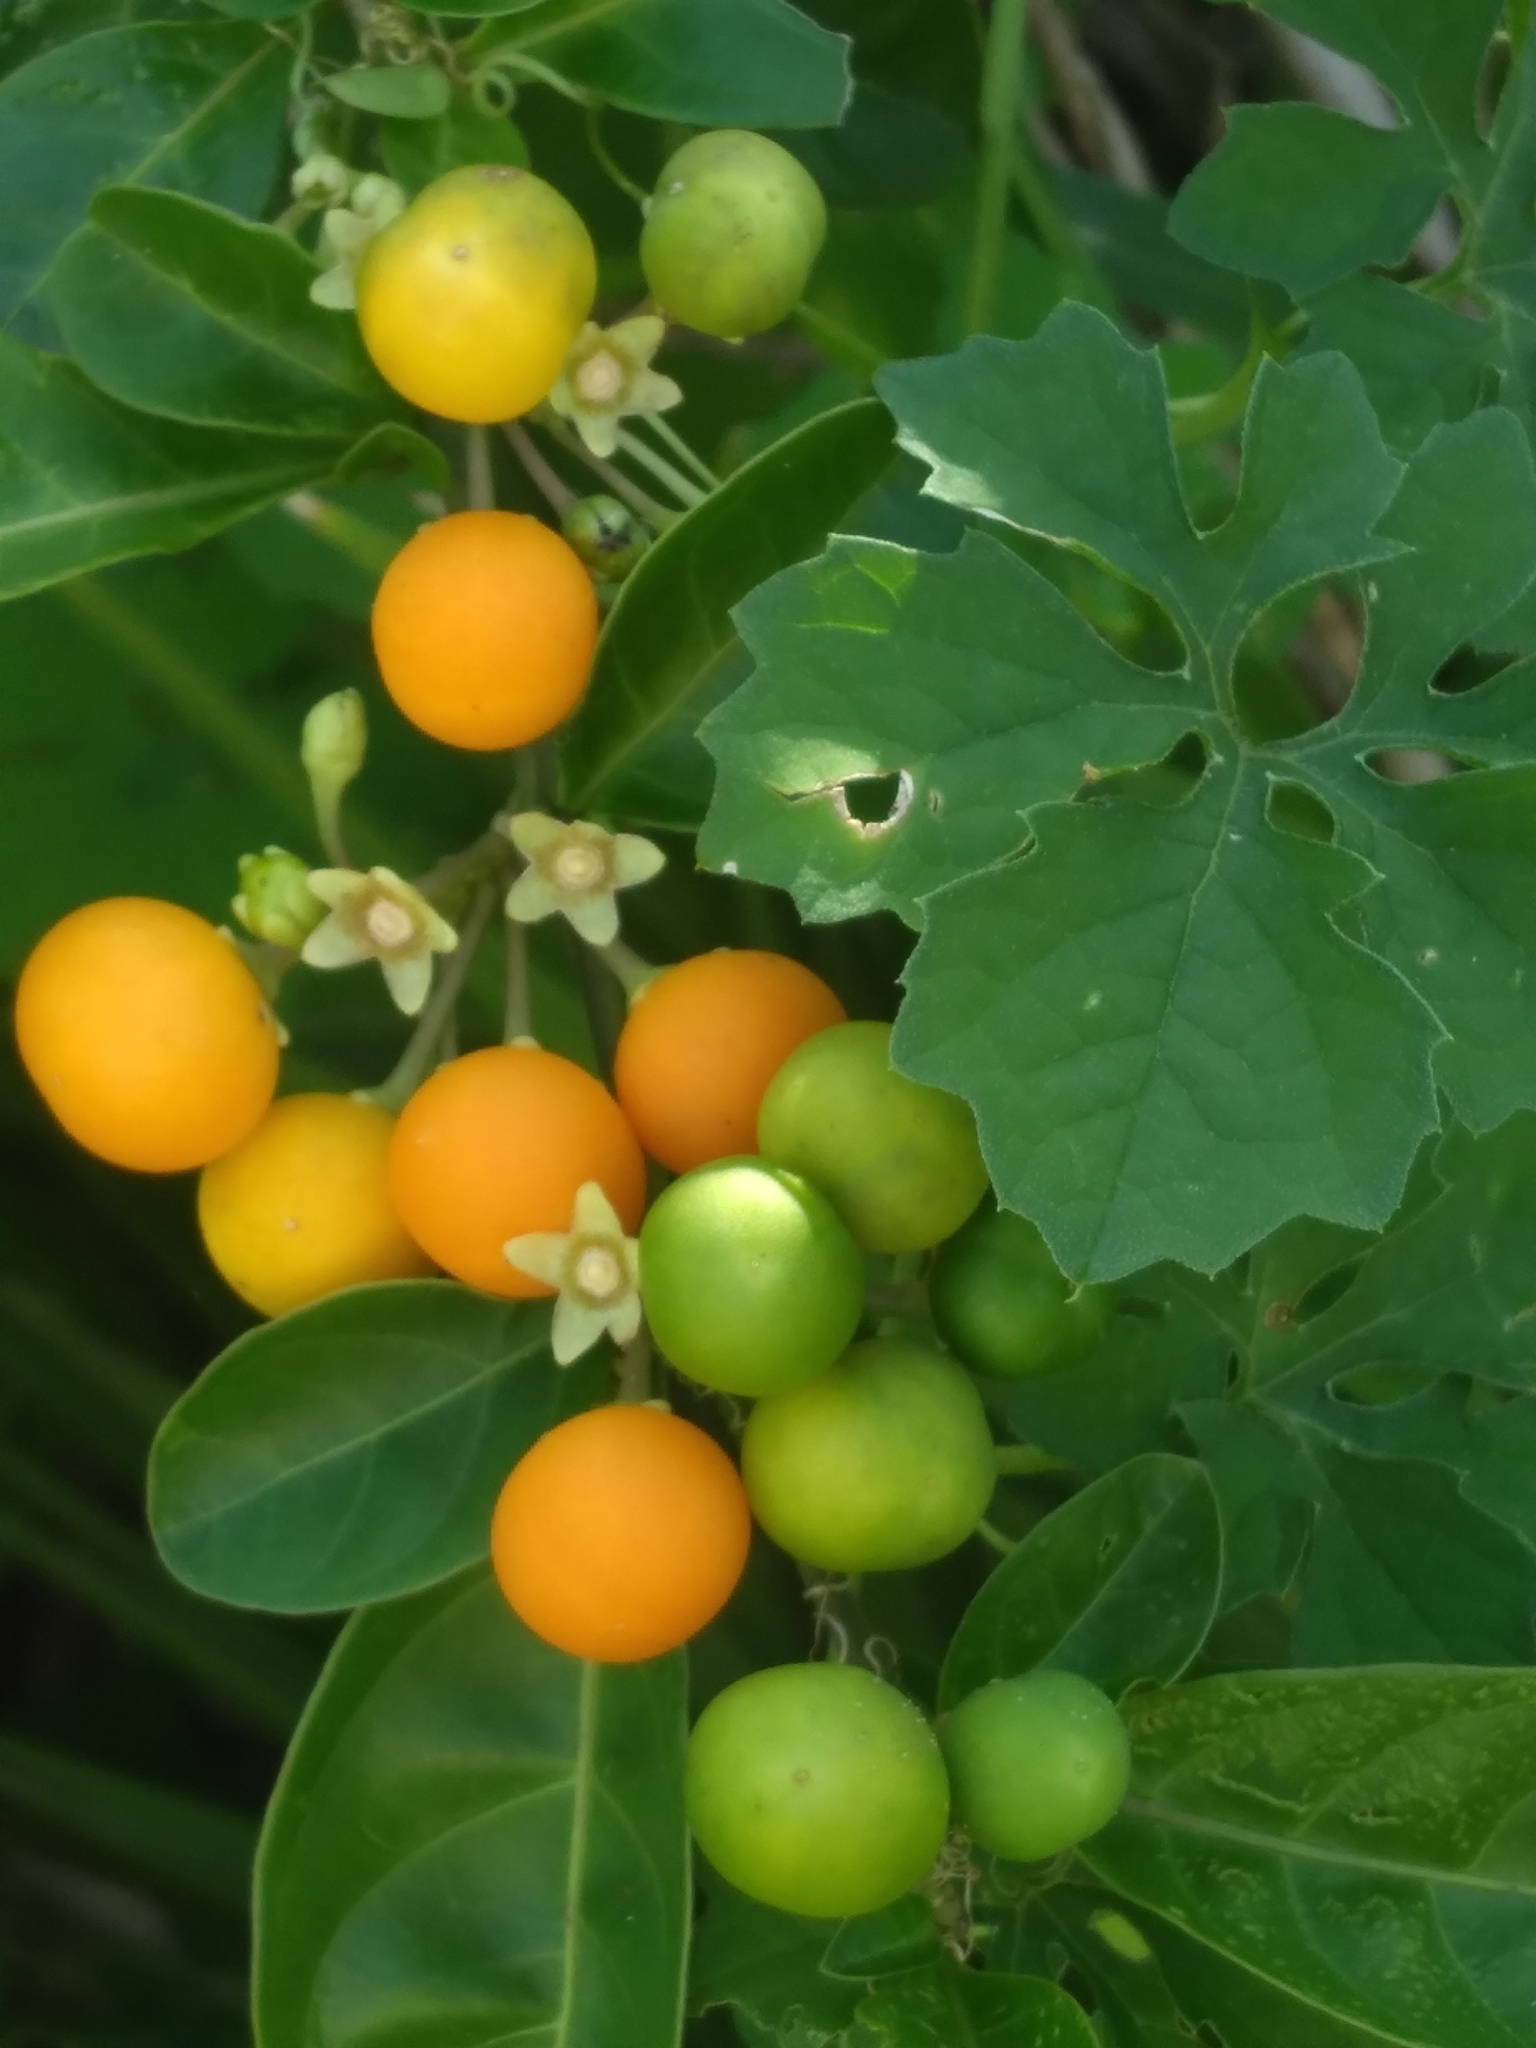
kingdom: Plantae
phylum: Tracheophyta
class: Magnoliopsida
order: Solanales
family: Solanaceae
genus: Solanum
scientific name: Solanum diphyllum
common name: Twoleaf nightshade
